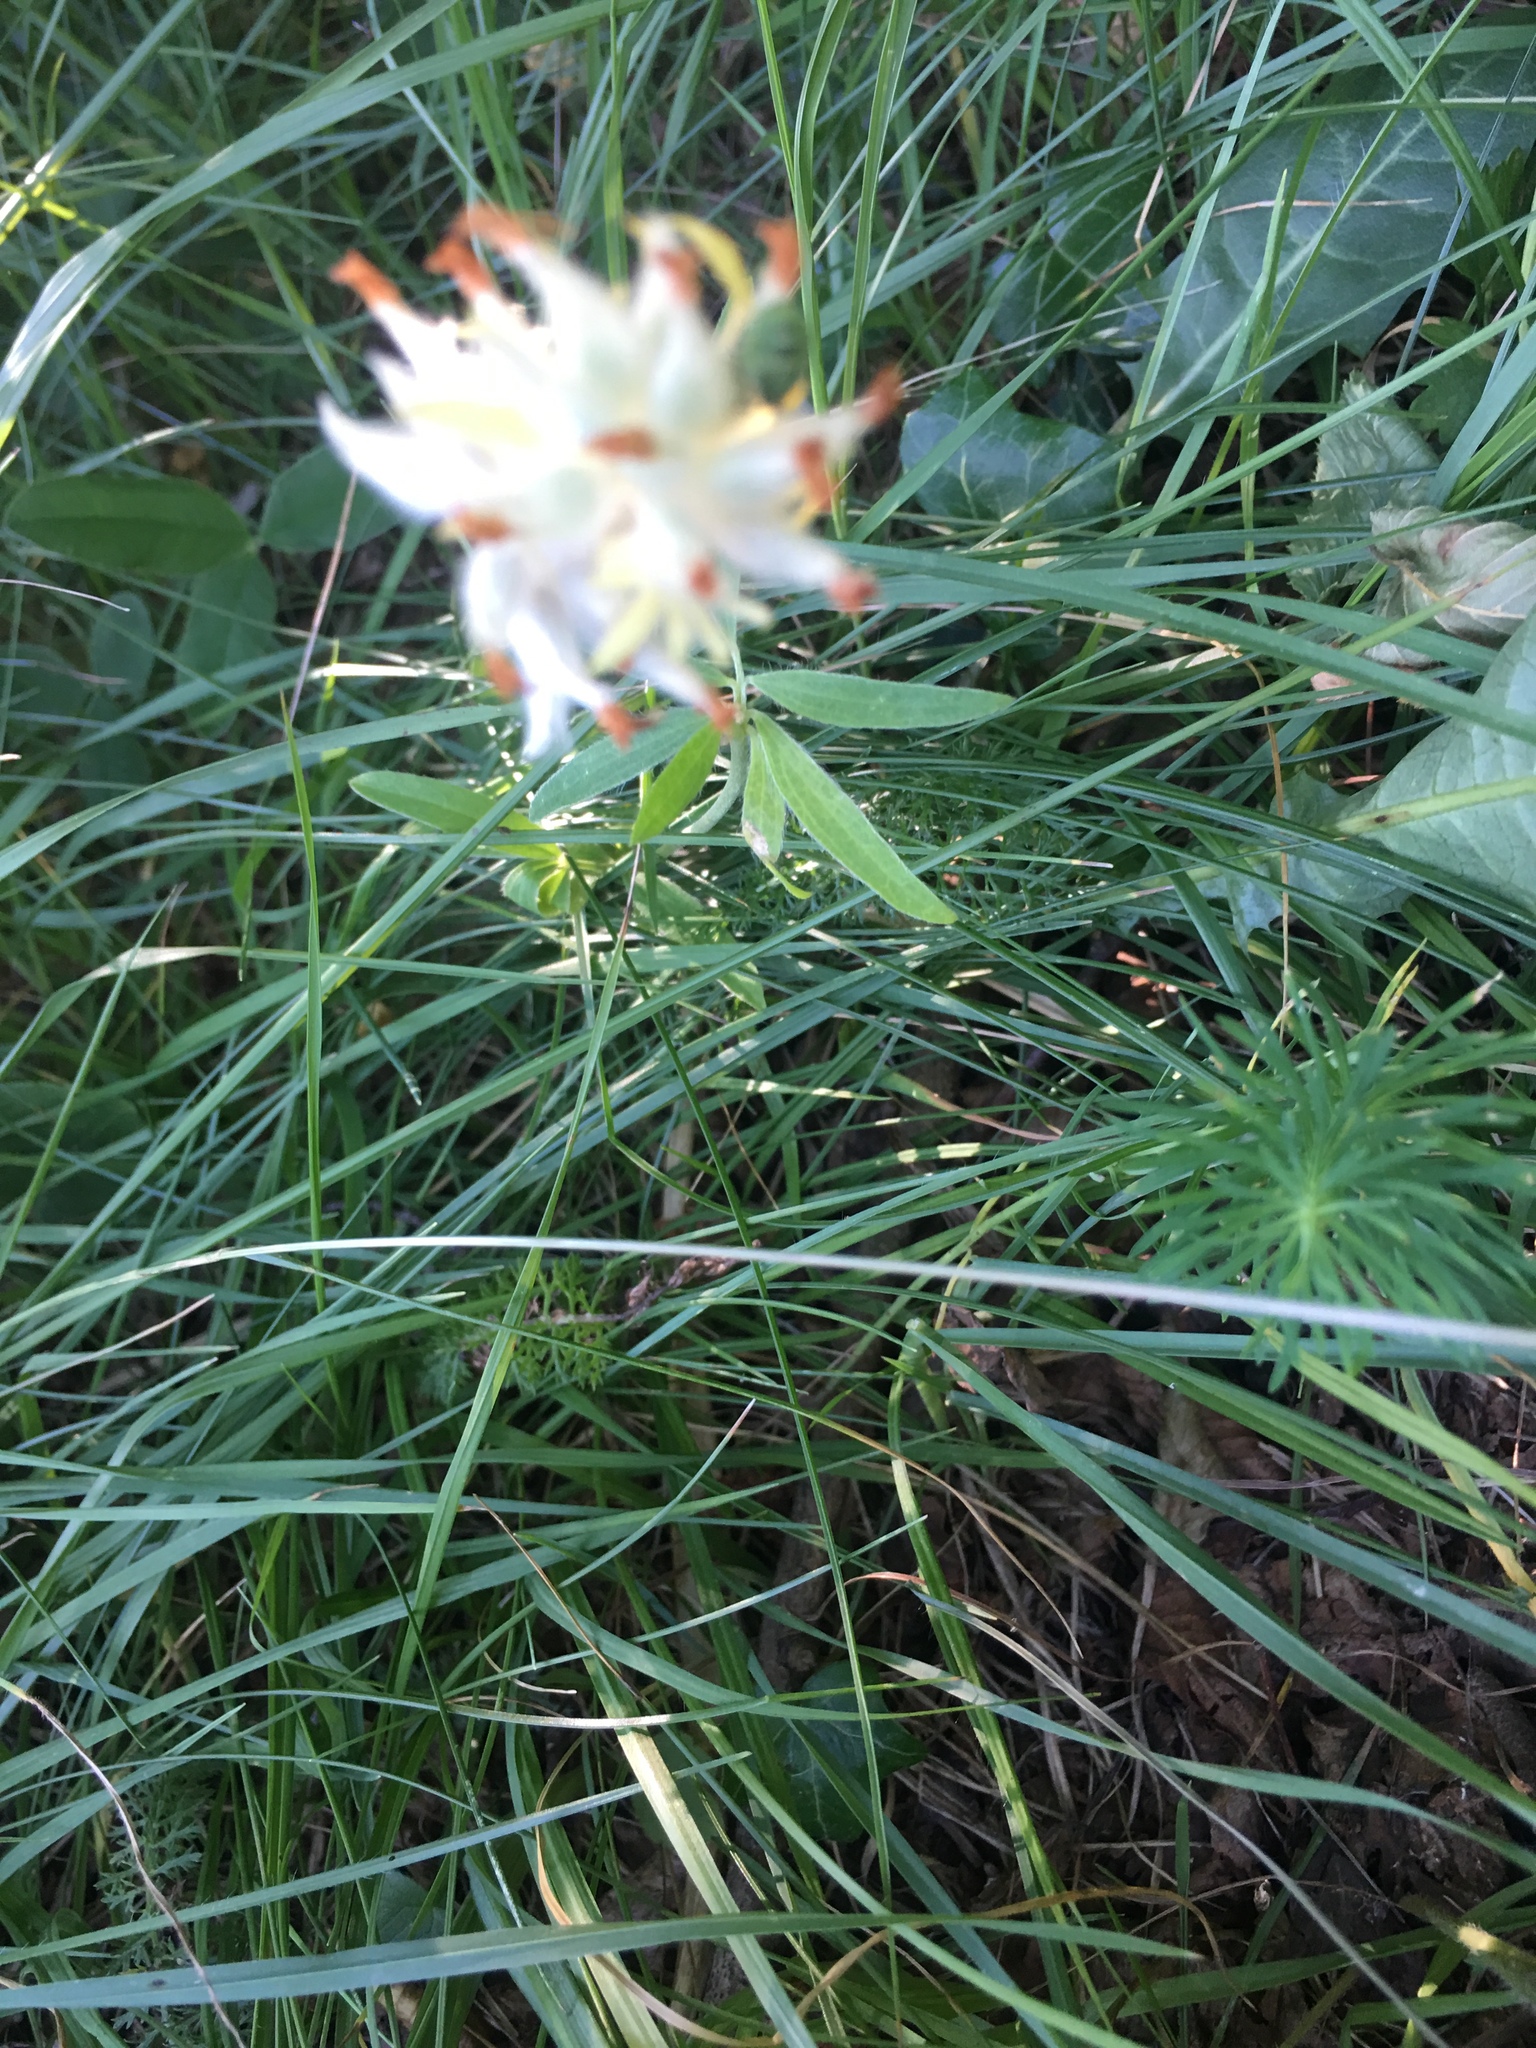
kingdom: Plantae
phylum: Tracheophyta
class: Magnoliopsida
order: Fabales
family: Fabaceae
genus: Anthyllis
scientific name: Anthyllis vulneraria
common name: Kidney vetch
